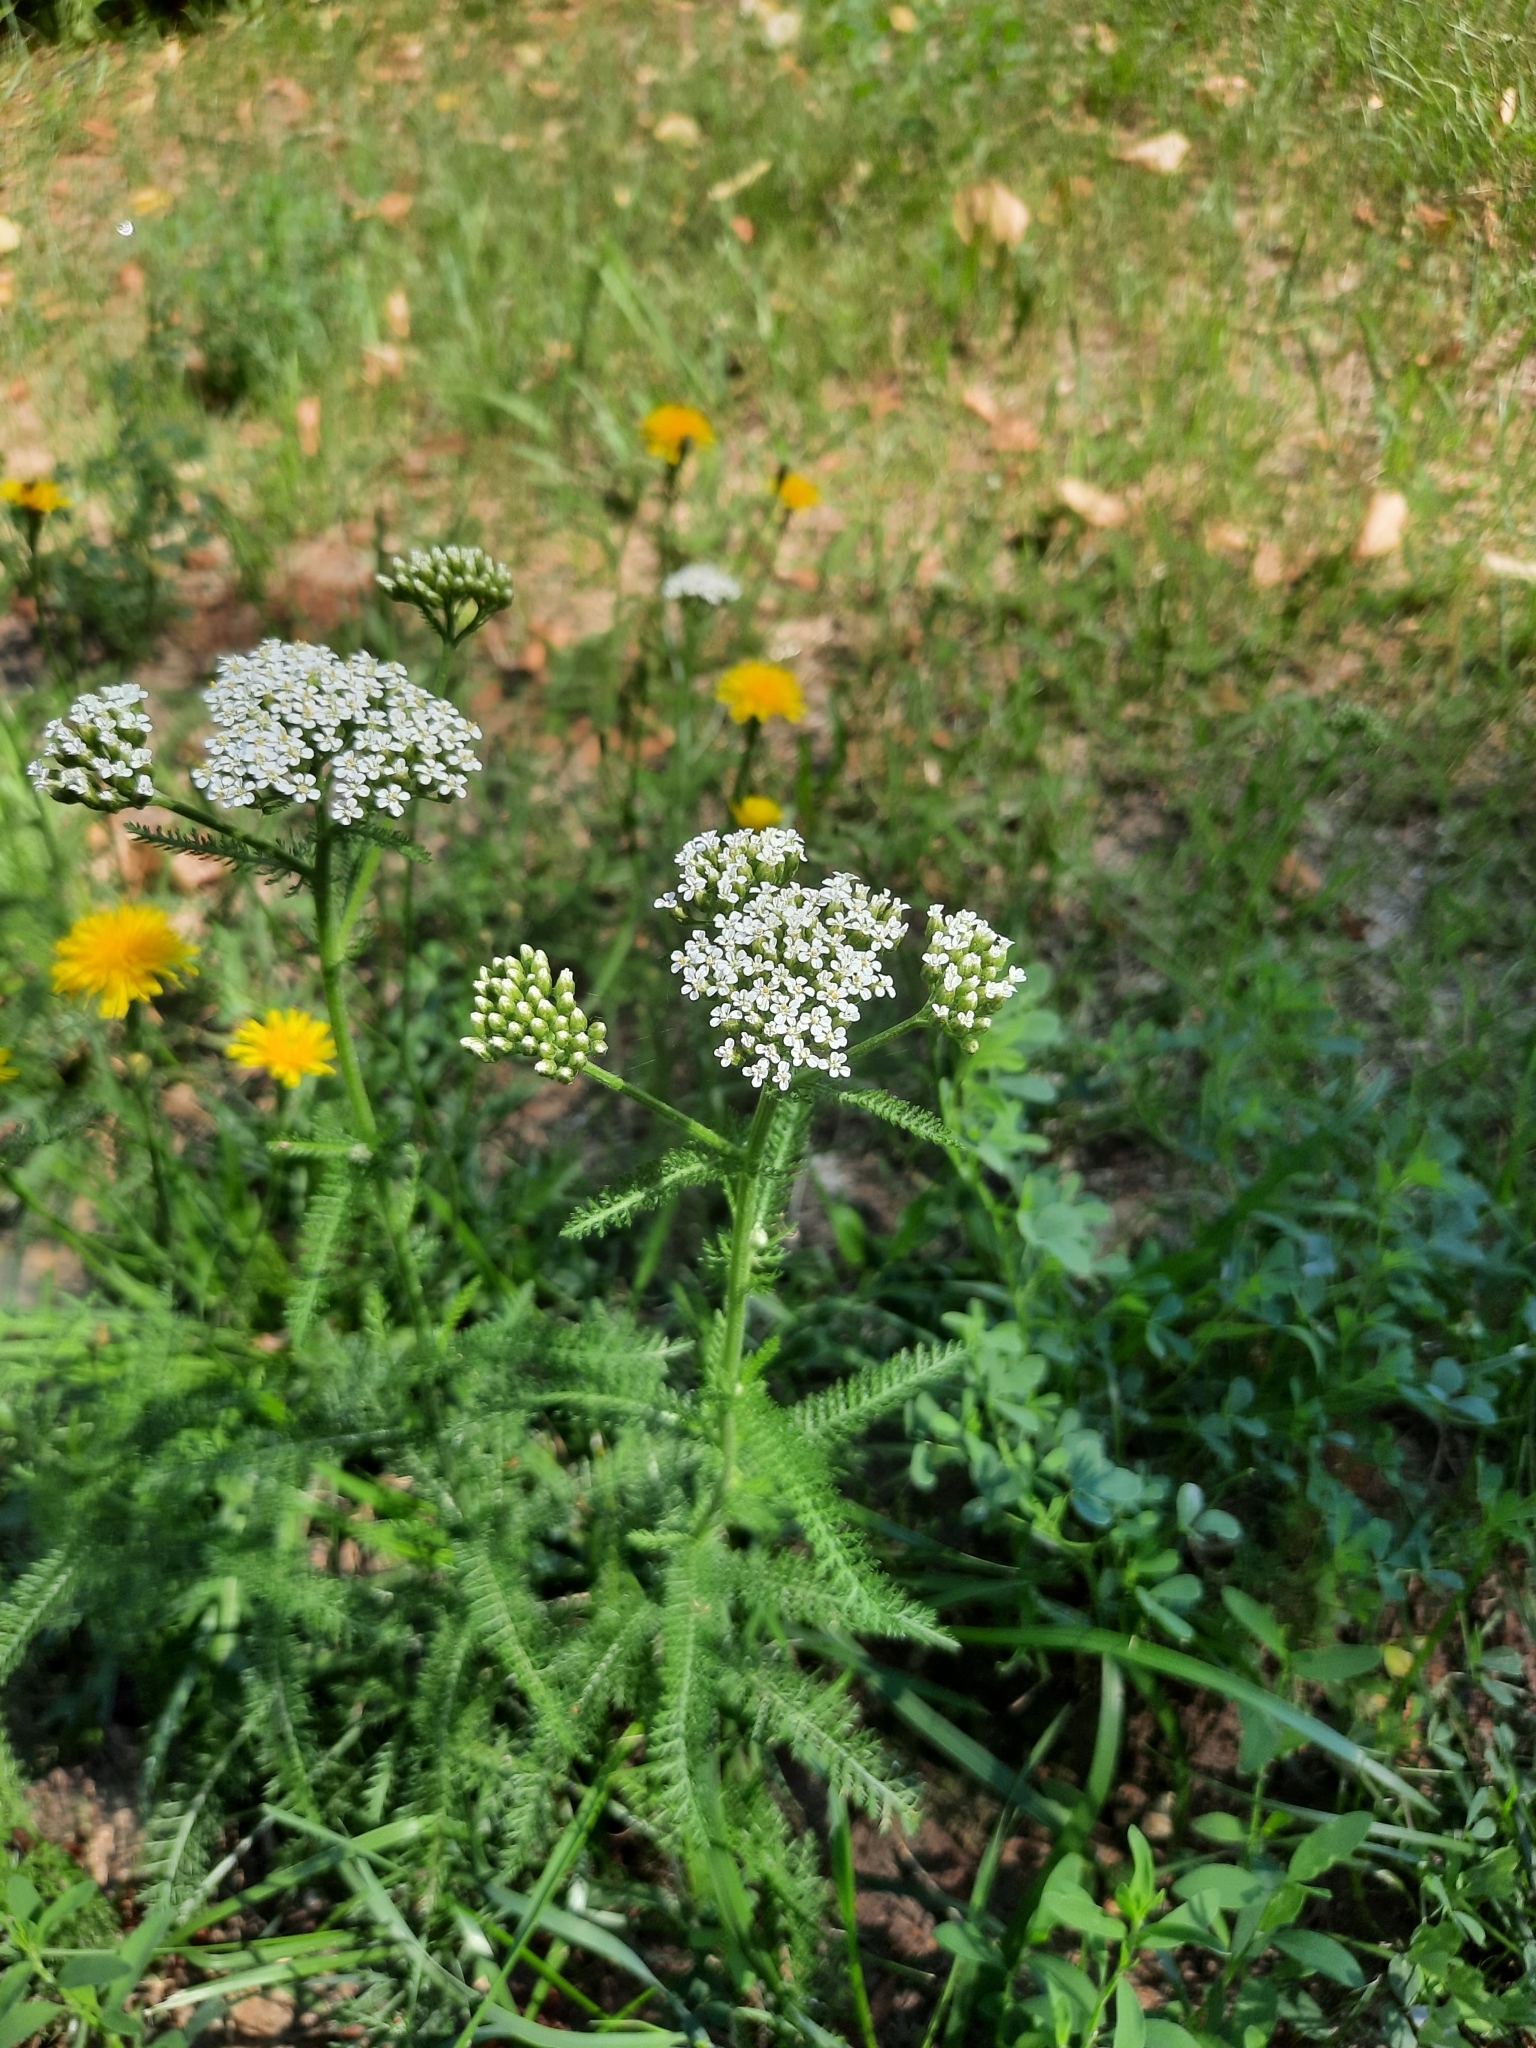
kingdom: Plantae
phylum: Tracheophyta
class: Magnoliopsida
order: Asterales
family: Asteraceae
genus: Achillea
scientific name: Achillea millefolium
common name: Yarrow
